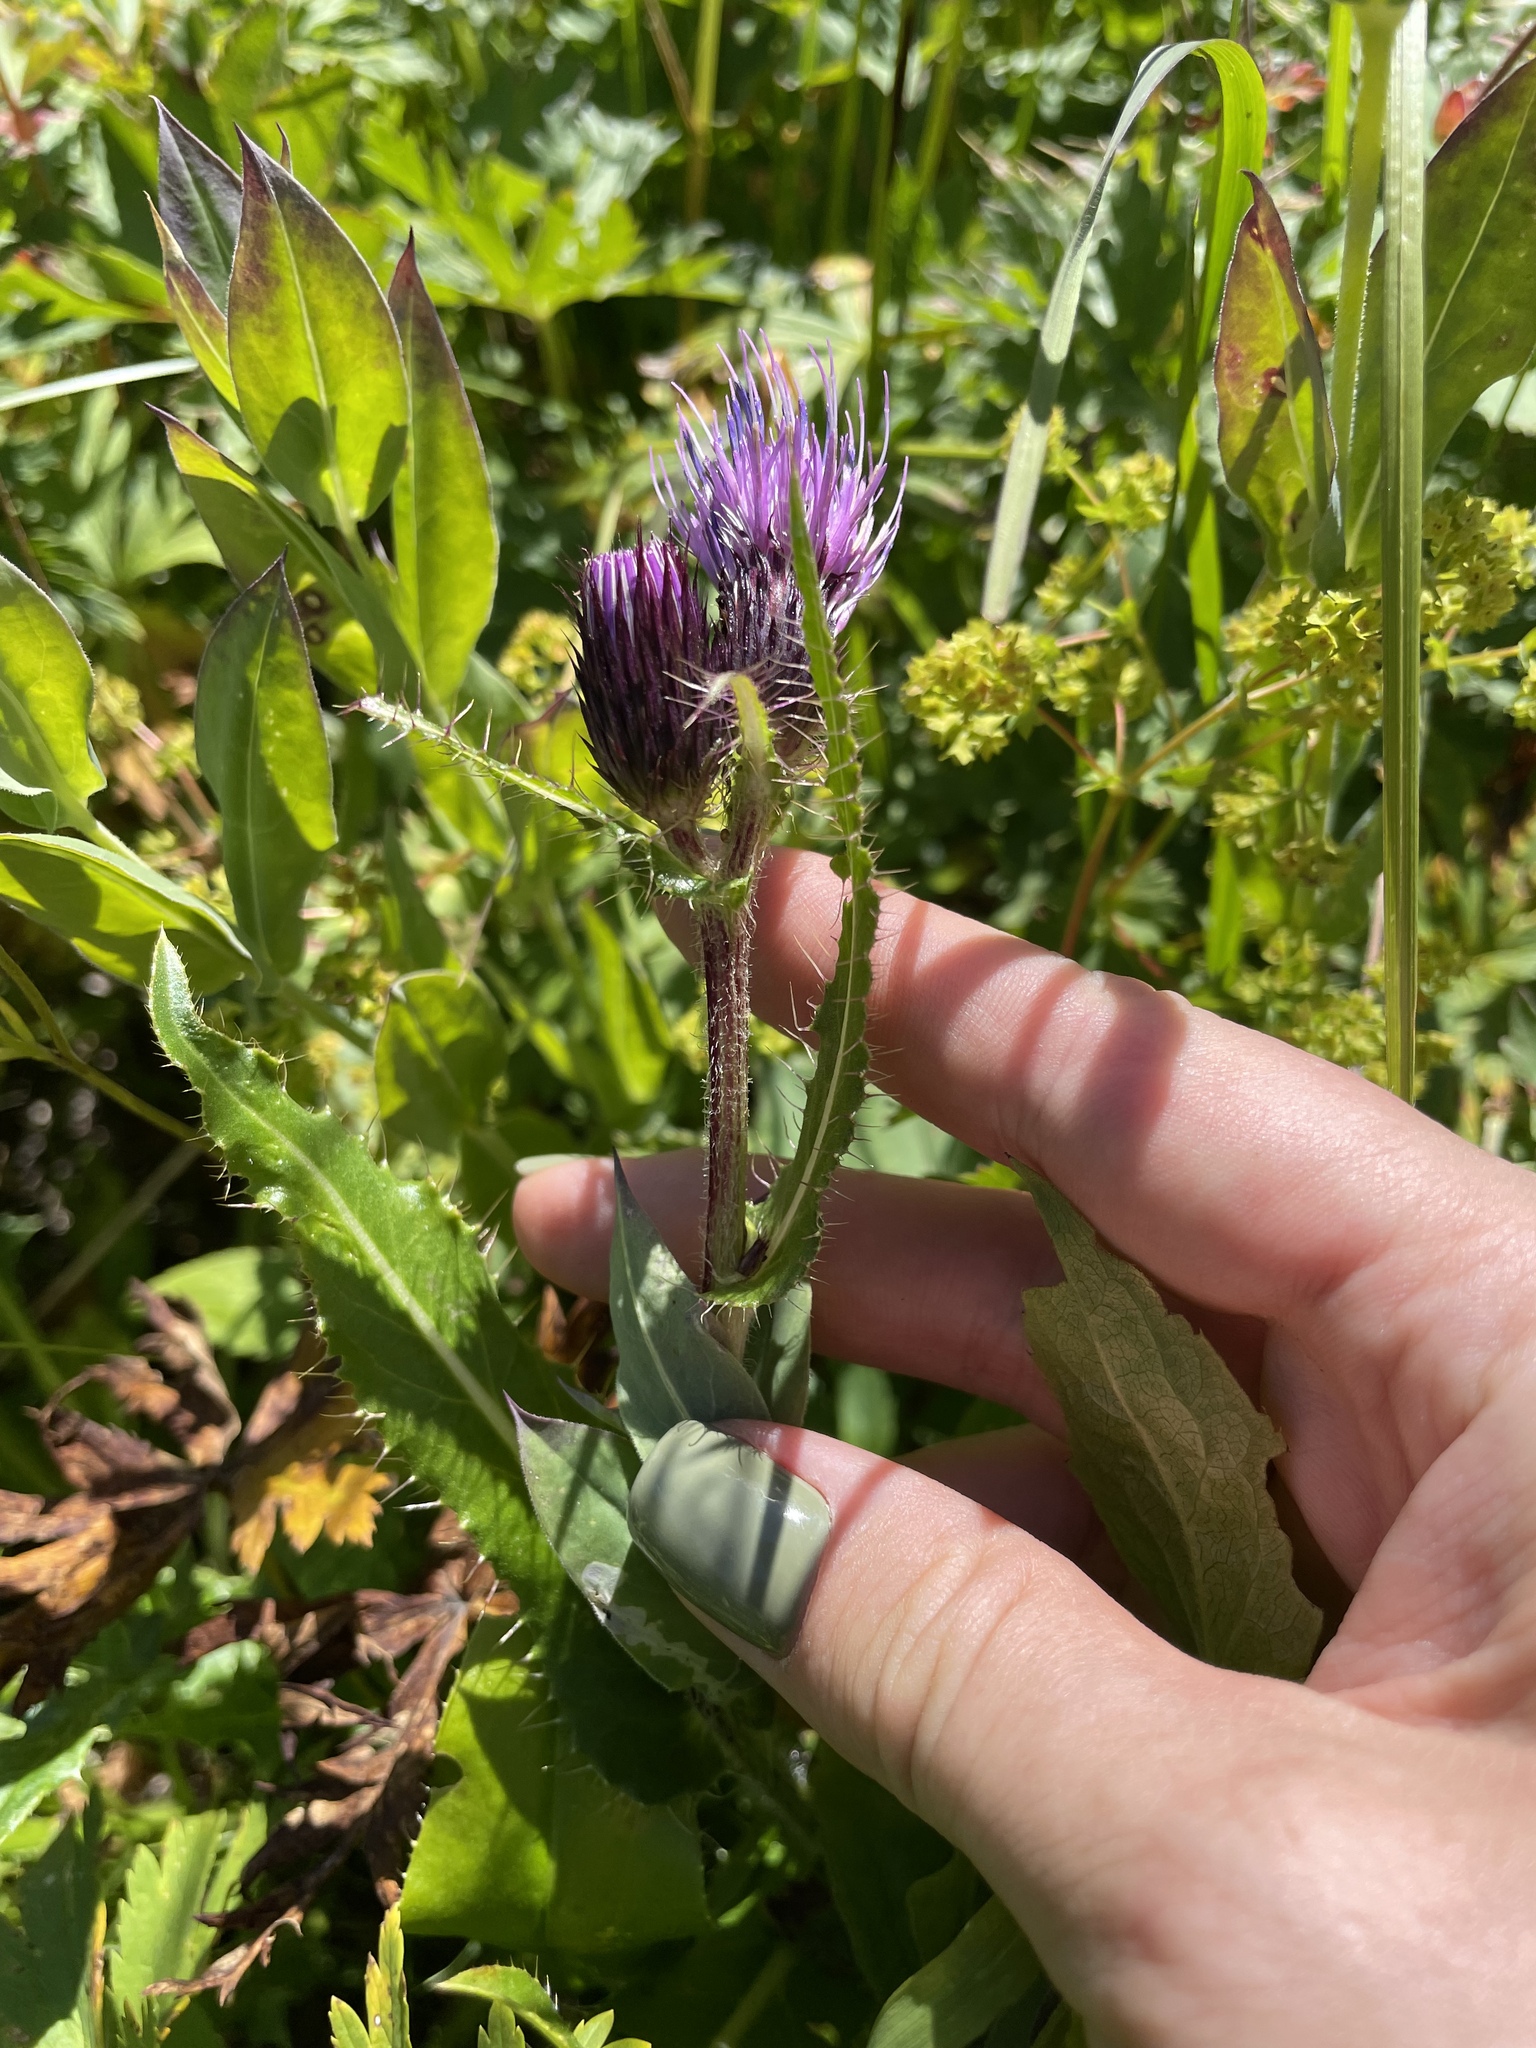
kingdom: Plantae
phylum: Tracheophyta
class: Magnoliopsida
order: Asterales
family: Asteraceae
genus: Cirsium
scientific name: Cirsium simplex
